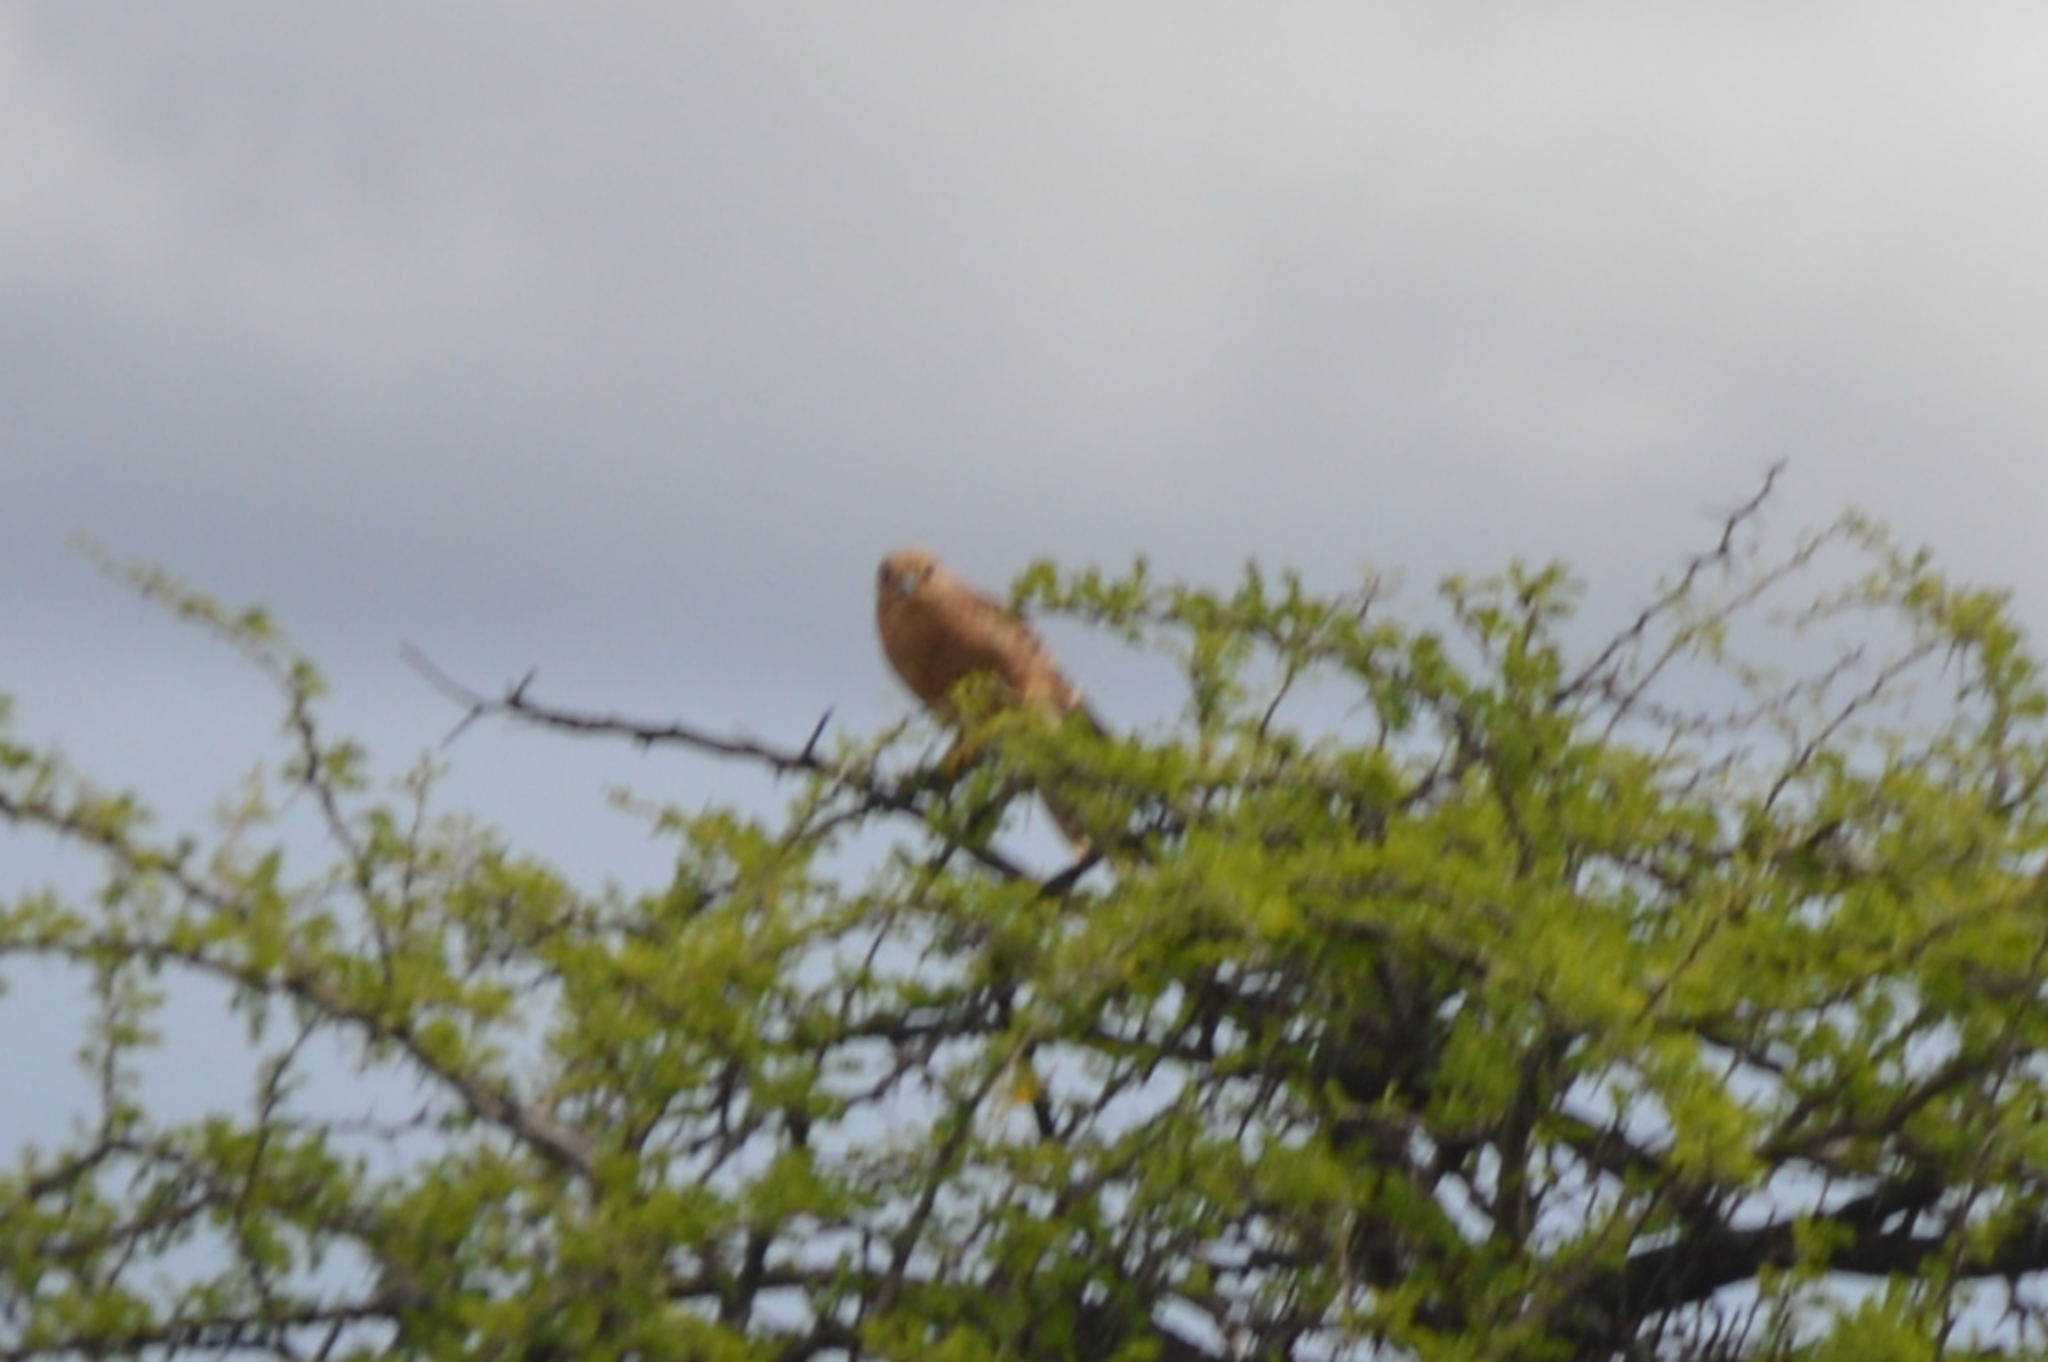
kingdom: Animalia
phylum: Chordata
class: Aves
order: Falconiformes
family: Falconidae
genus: Falco
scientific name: Falco rupicoloides
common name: Greater kestrel
